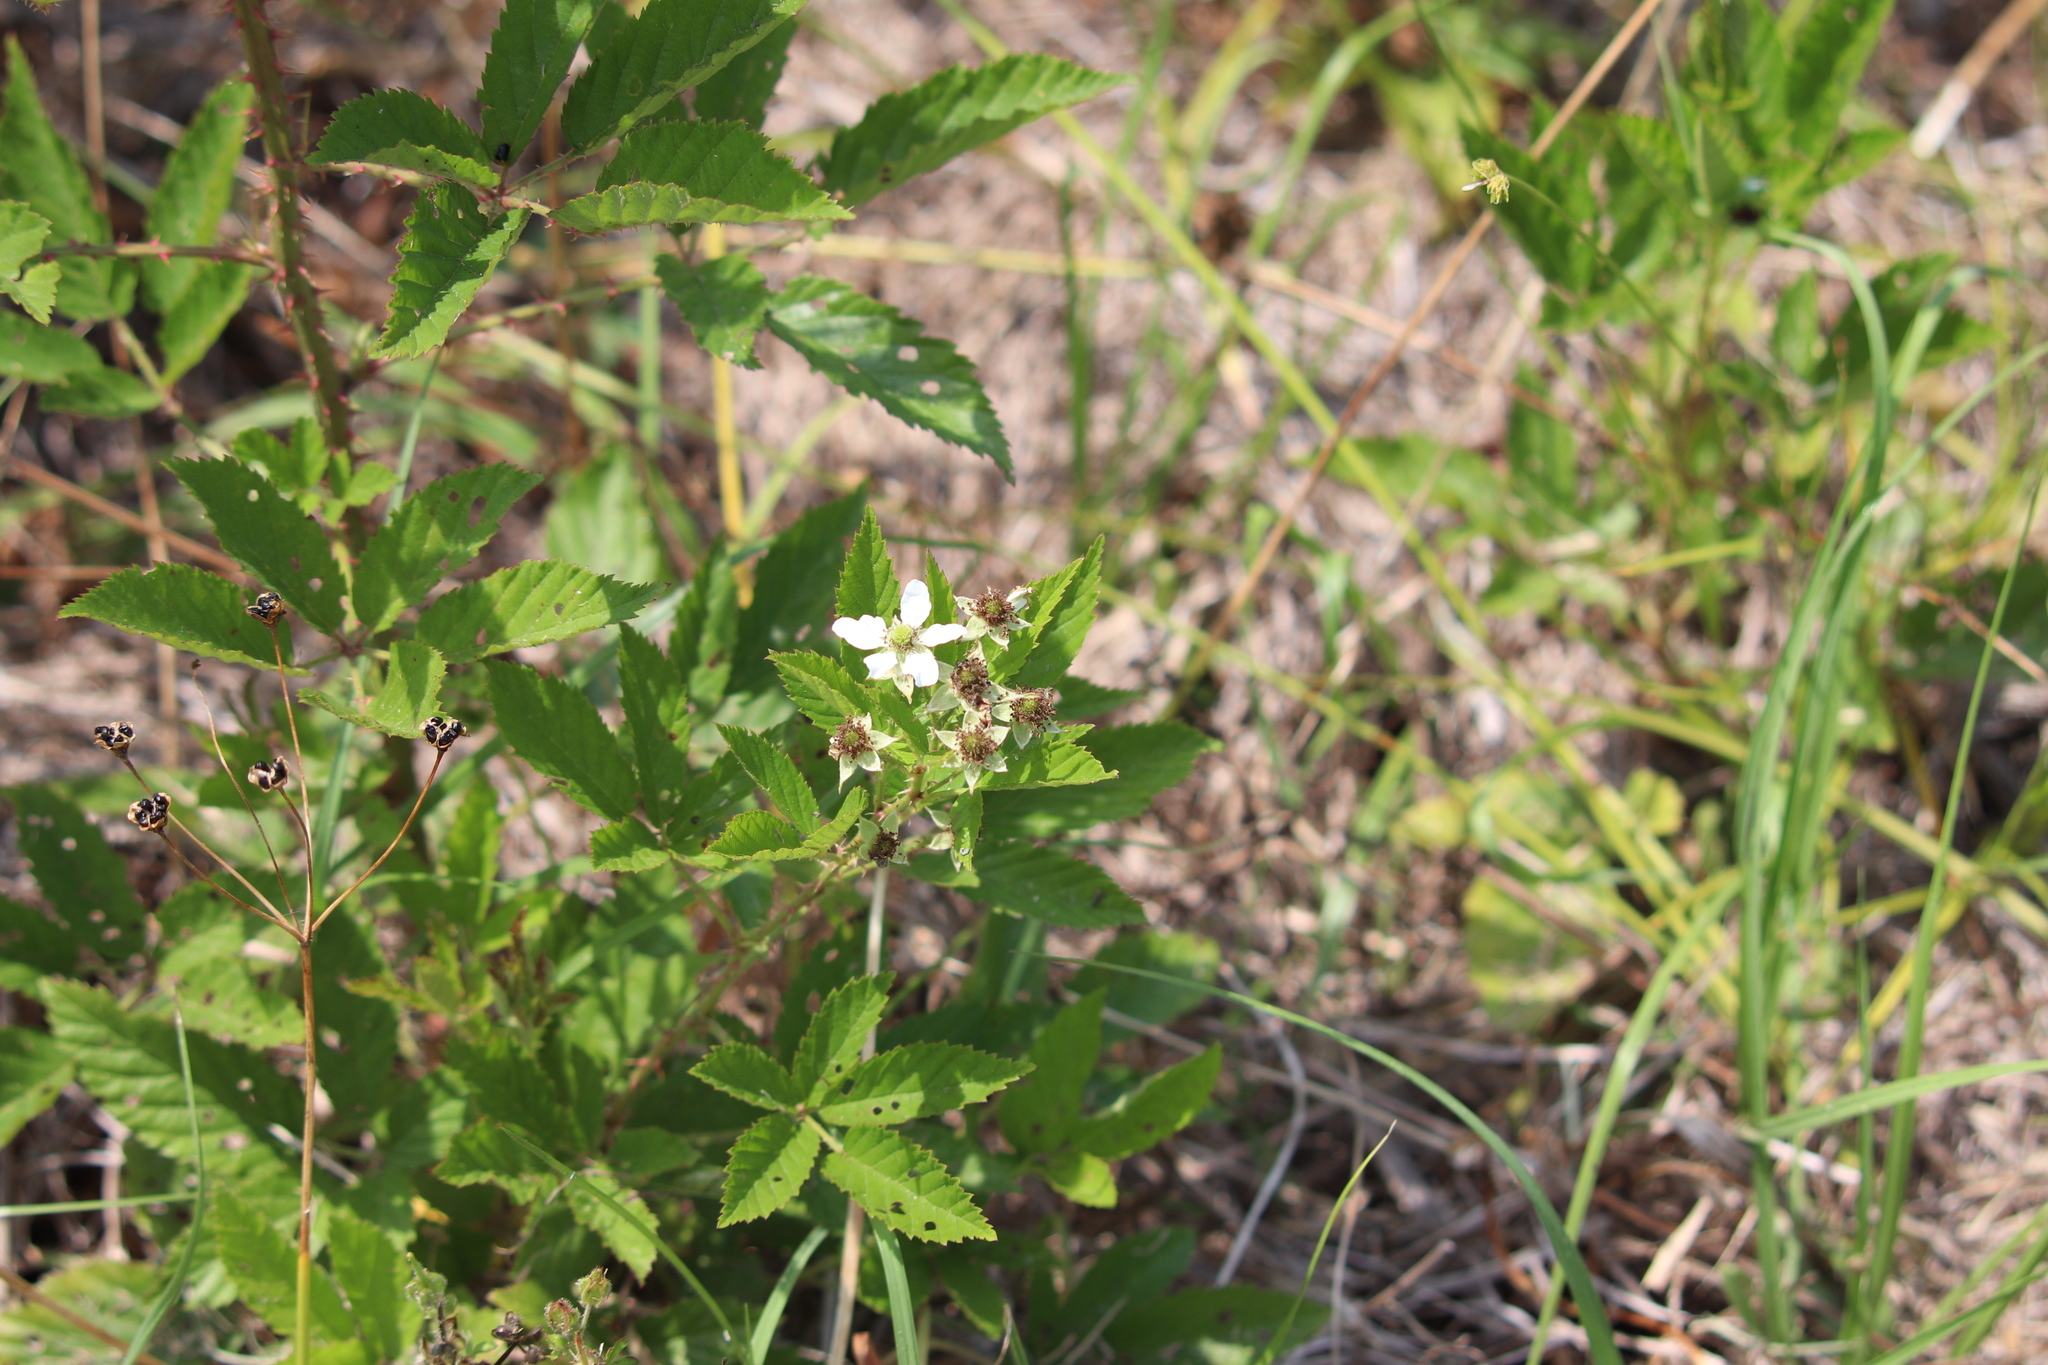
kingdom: Plantae
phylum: Tracheophyta
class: Magnoliopsida
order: Rosales
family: Rosaceae
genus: Rubus
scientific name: Rubus pensilvanicus
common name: Pennsylvania blackberry
